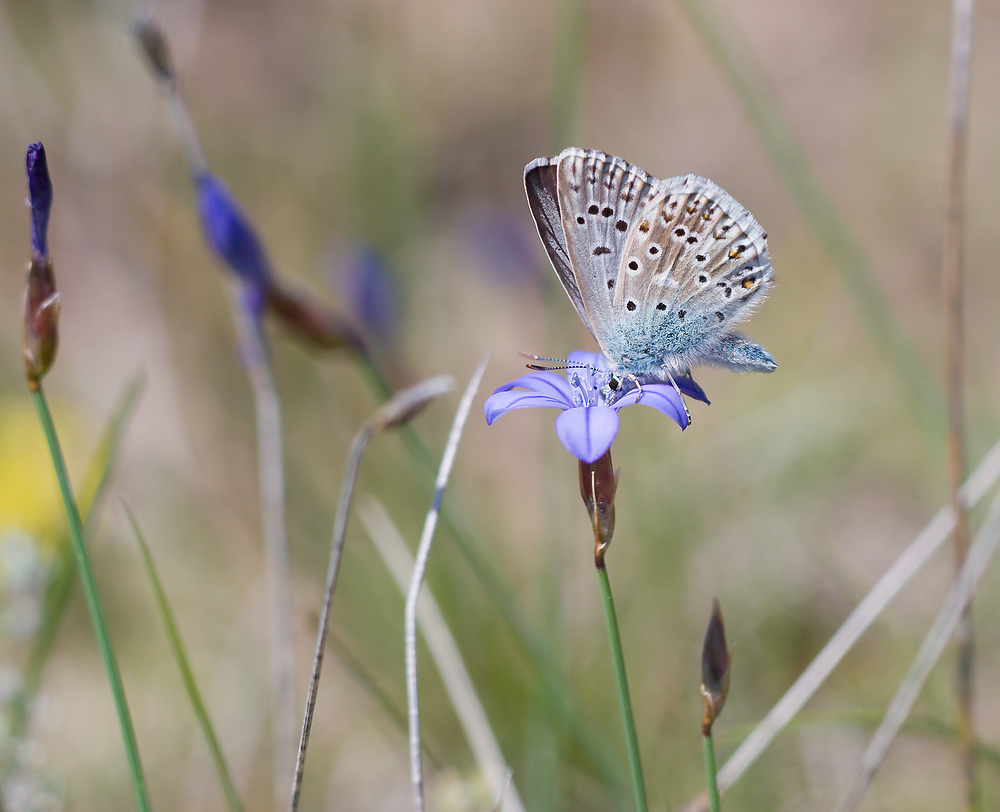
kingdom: Animalia
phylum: Arthropoda
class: Insecta
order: Lepidoptera
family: Lycaenidae
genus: Lysandra
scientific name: Lysandra hispana
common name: Provence chalkhill blue
